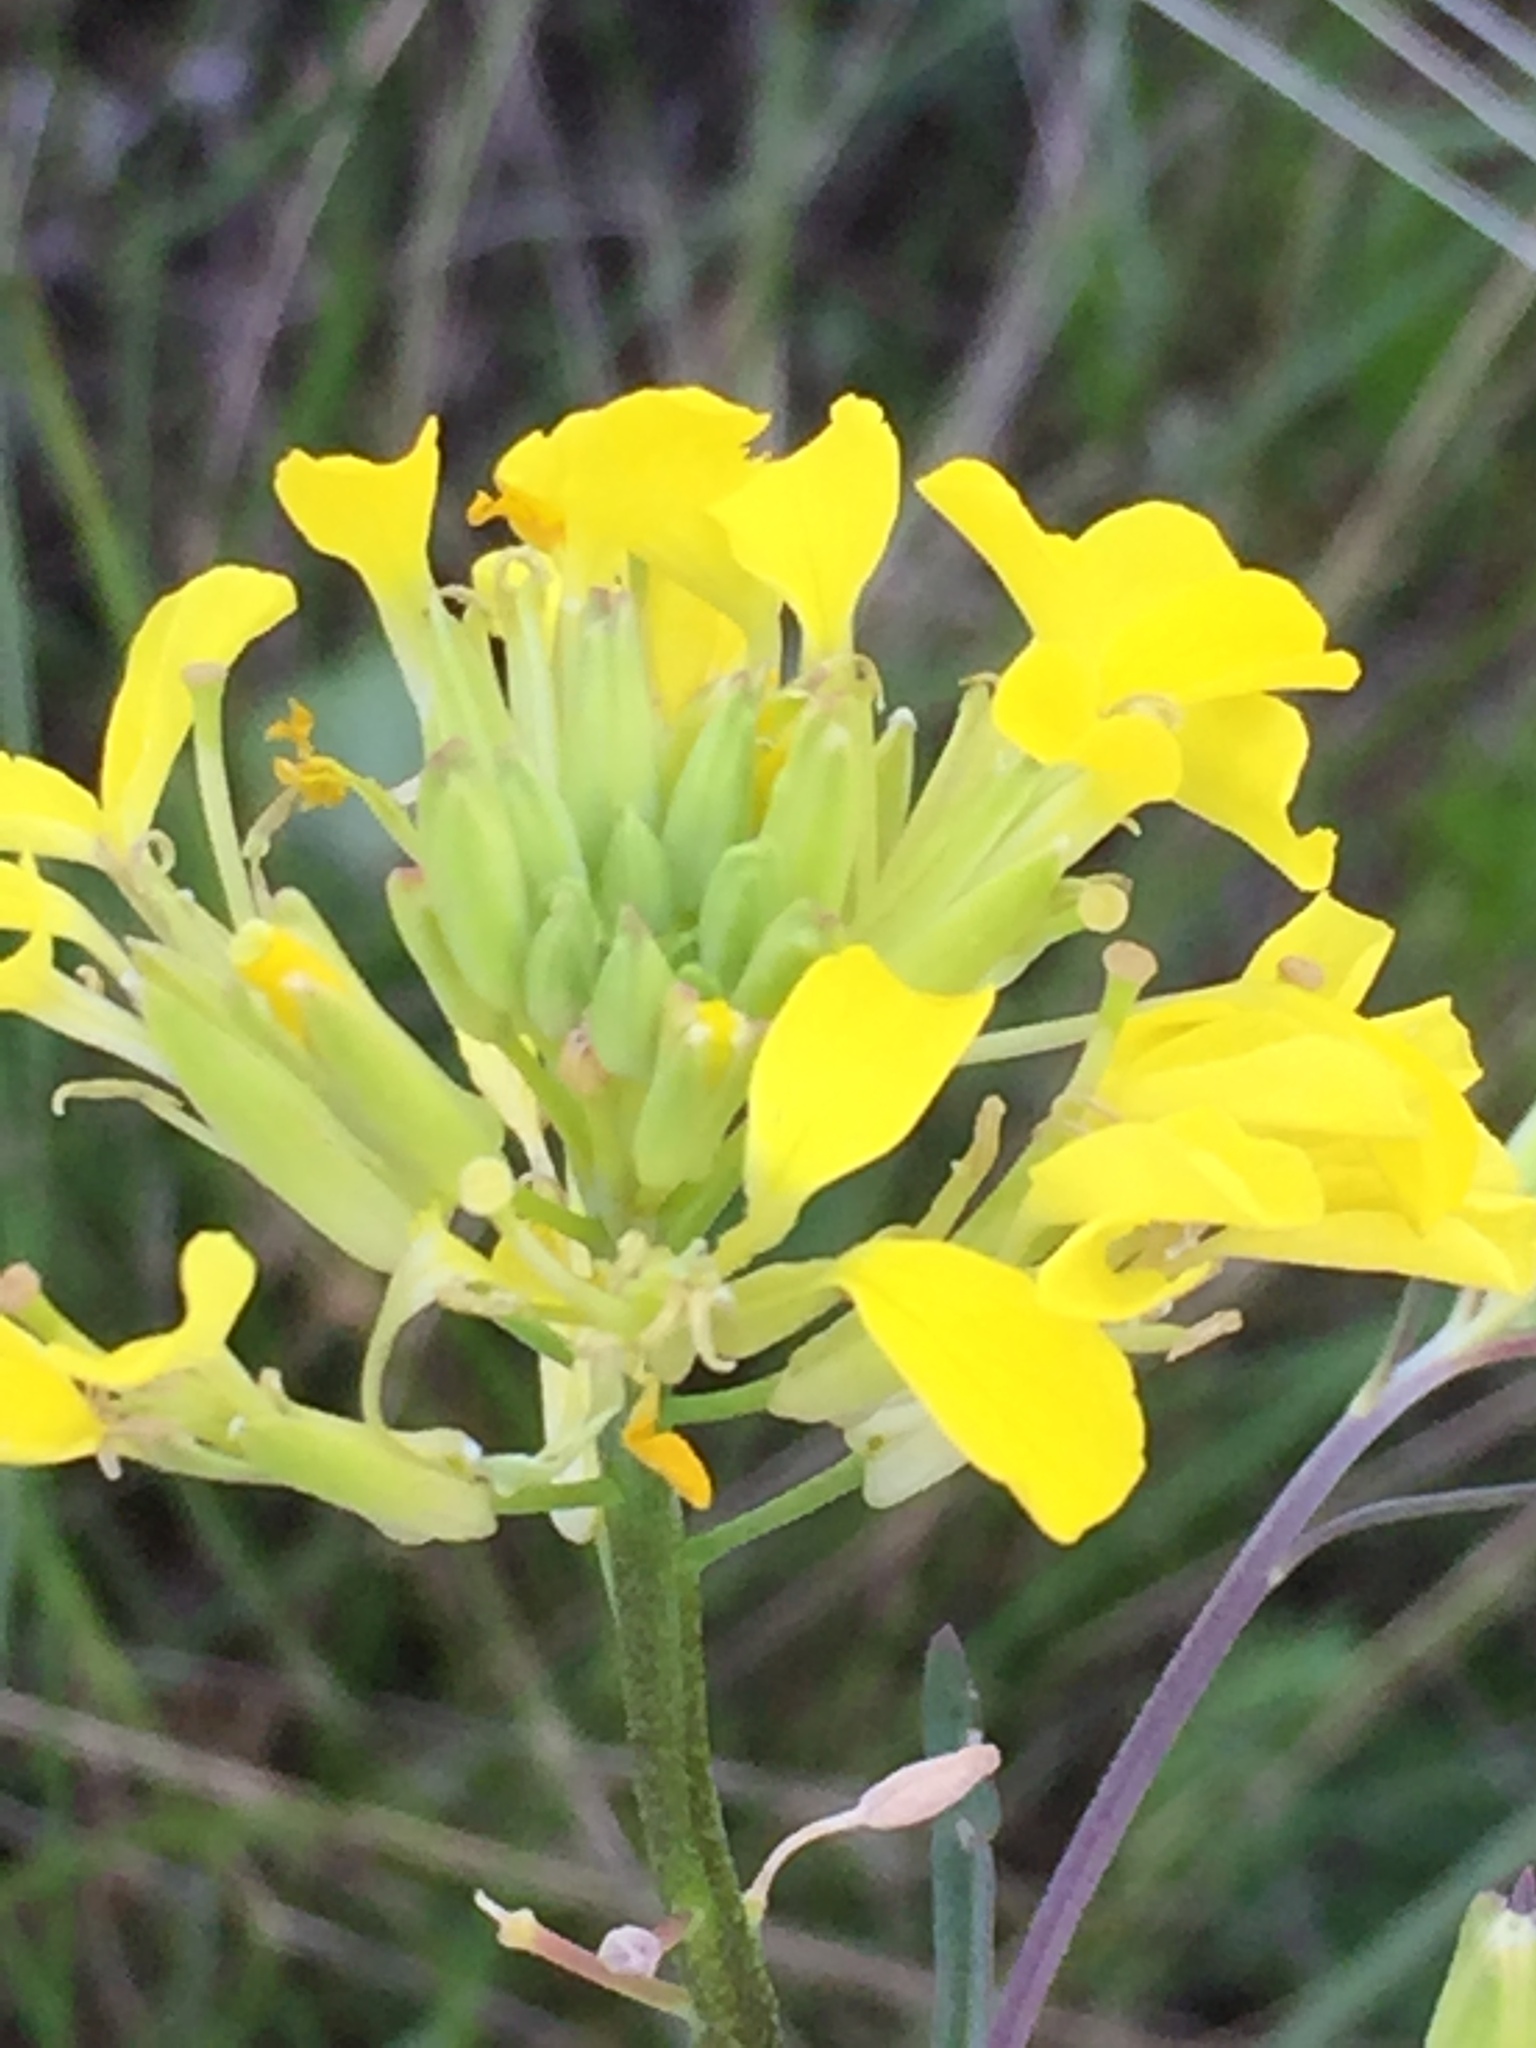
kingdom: Plantae
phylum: Tracheophyta
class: Magnoliopsida
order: Brassicales
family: Brassicaceae
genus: Erysimum
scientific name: Erysimum diffusum
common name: Diffuse wallflower
